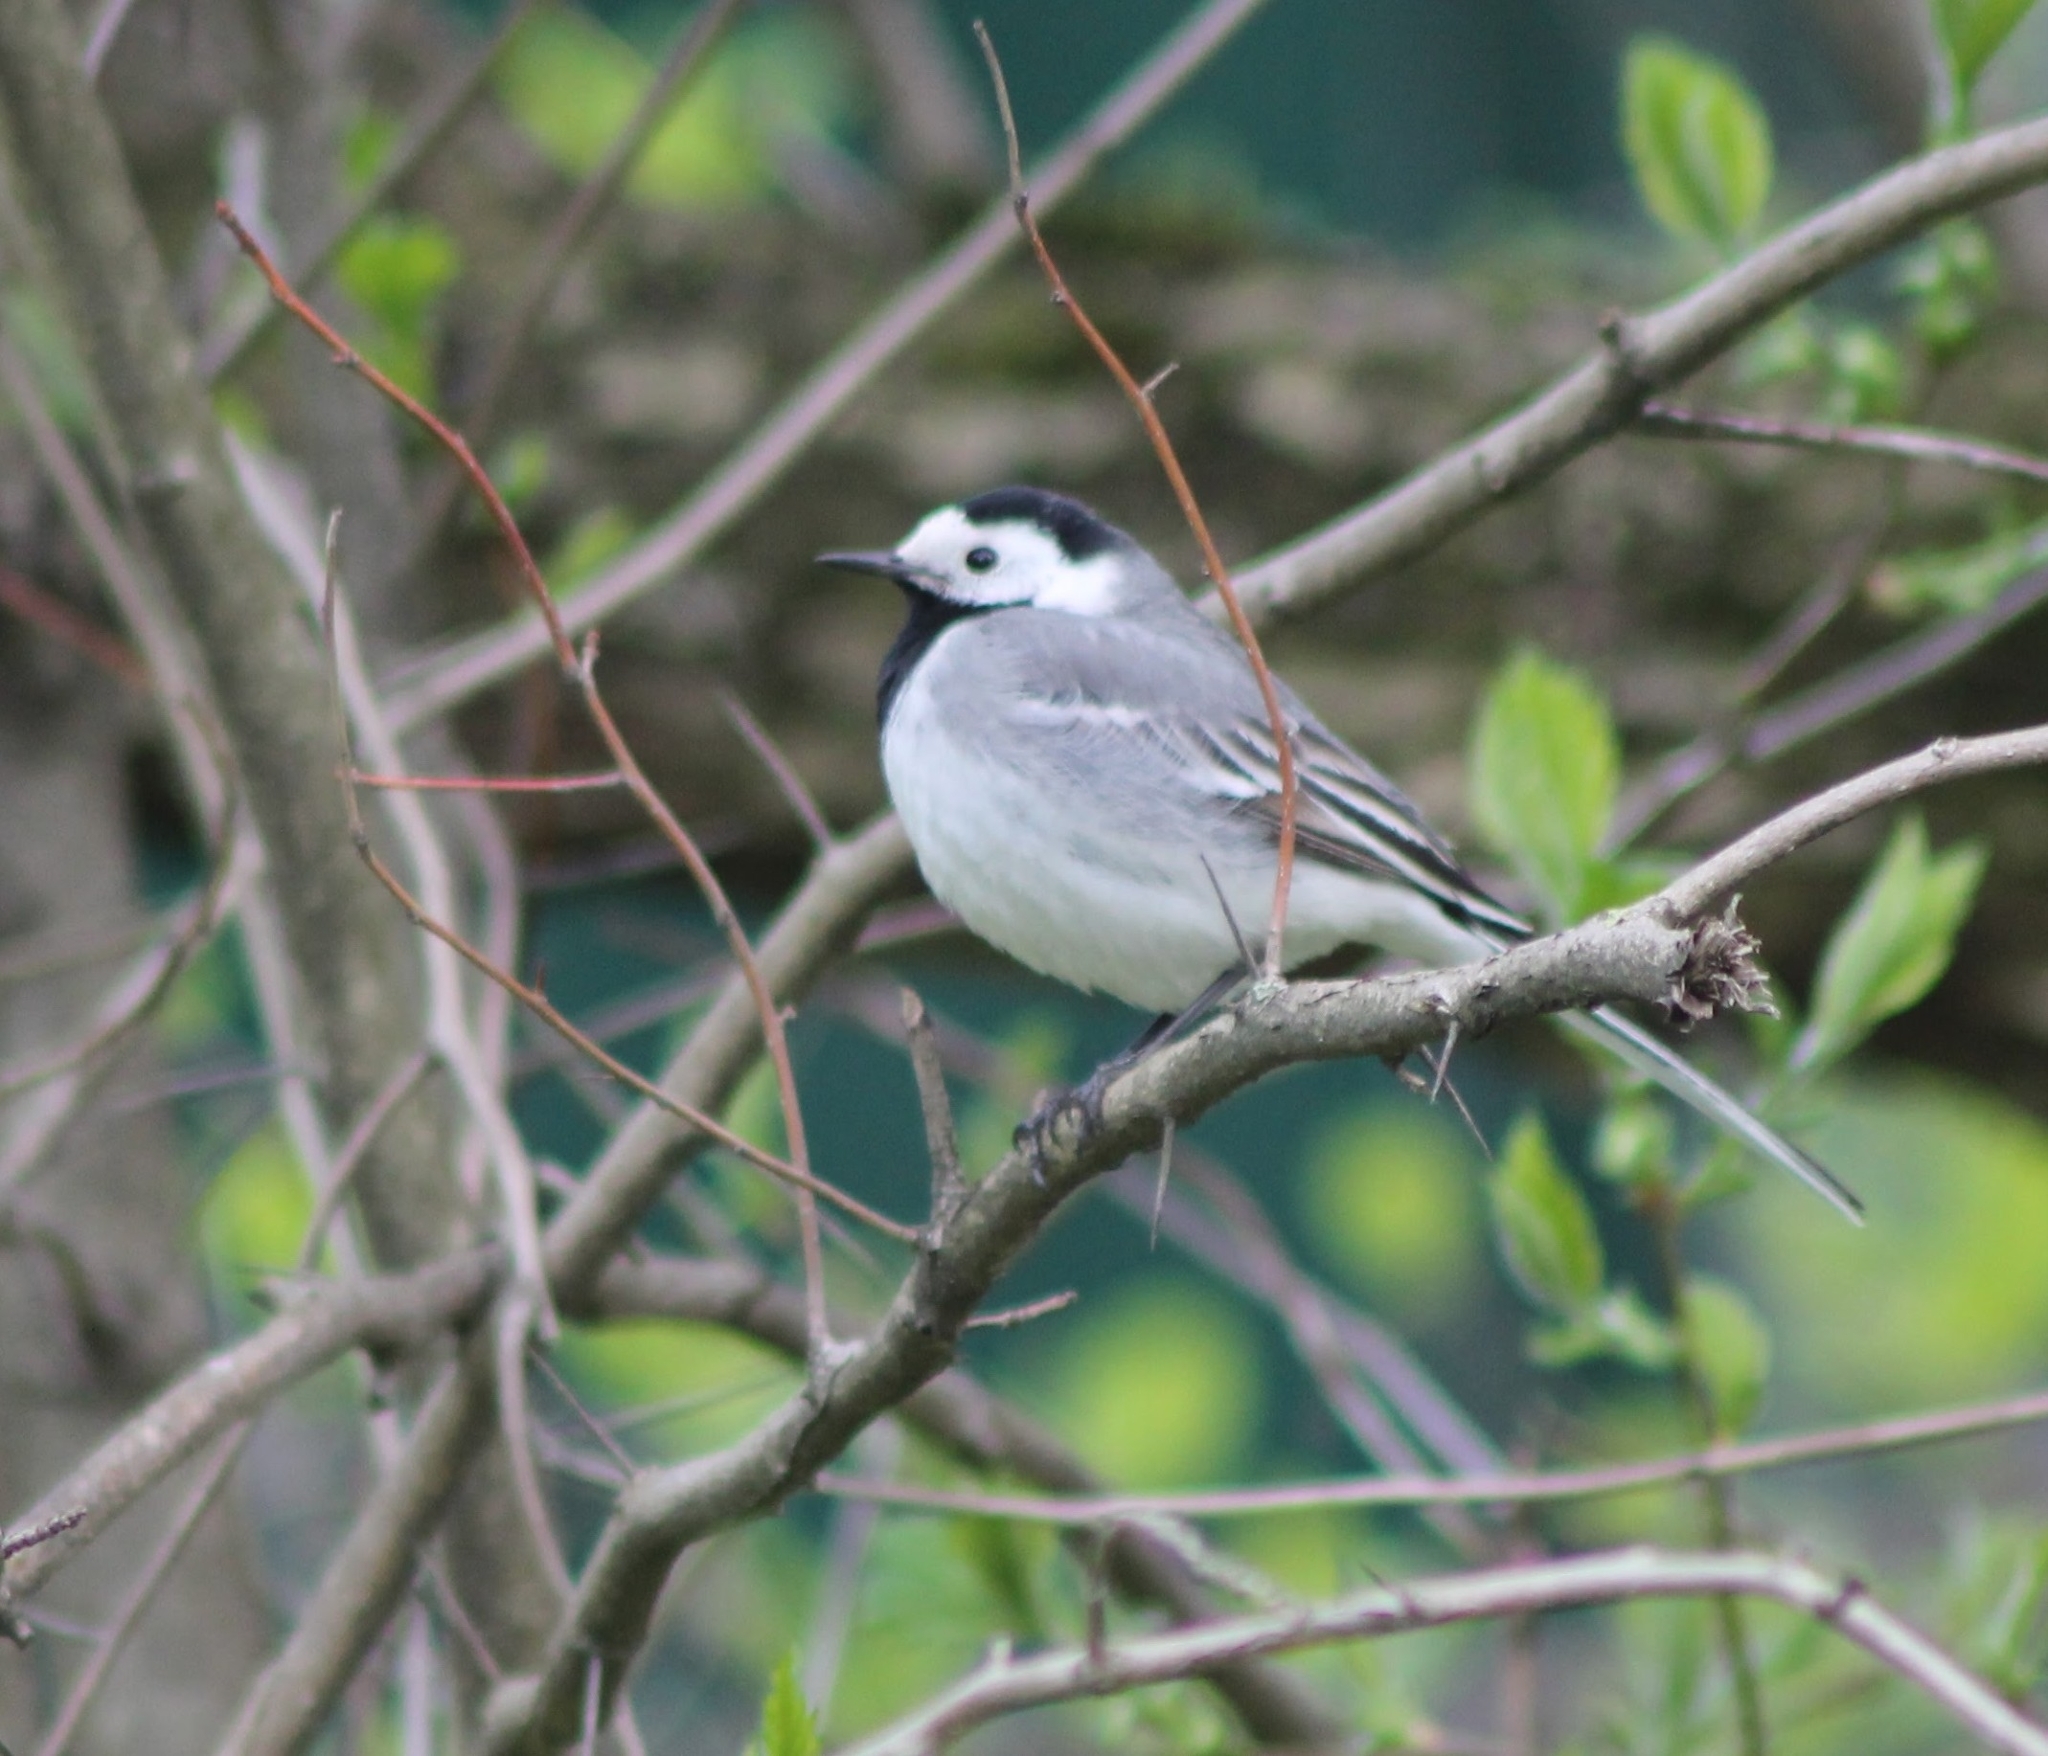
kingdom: Animalia
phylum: Chordata
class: Aves
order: Passeriformes
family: Motacillidae
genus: Motacilla
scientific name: Motacilla alba
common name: White wagtail
